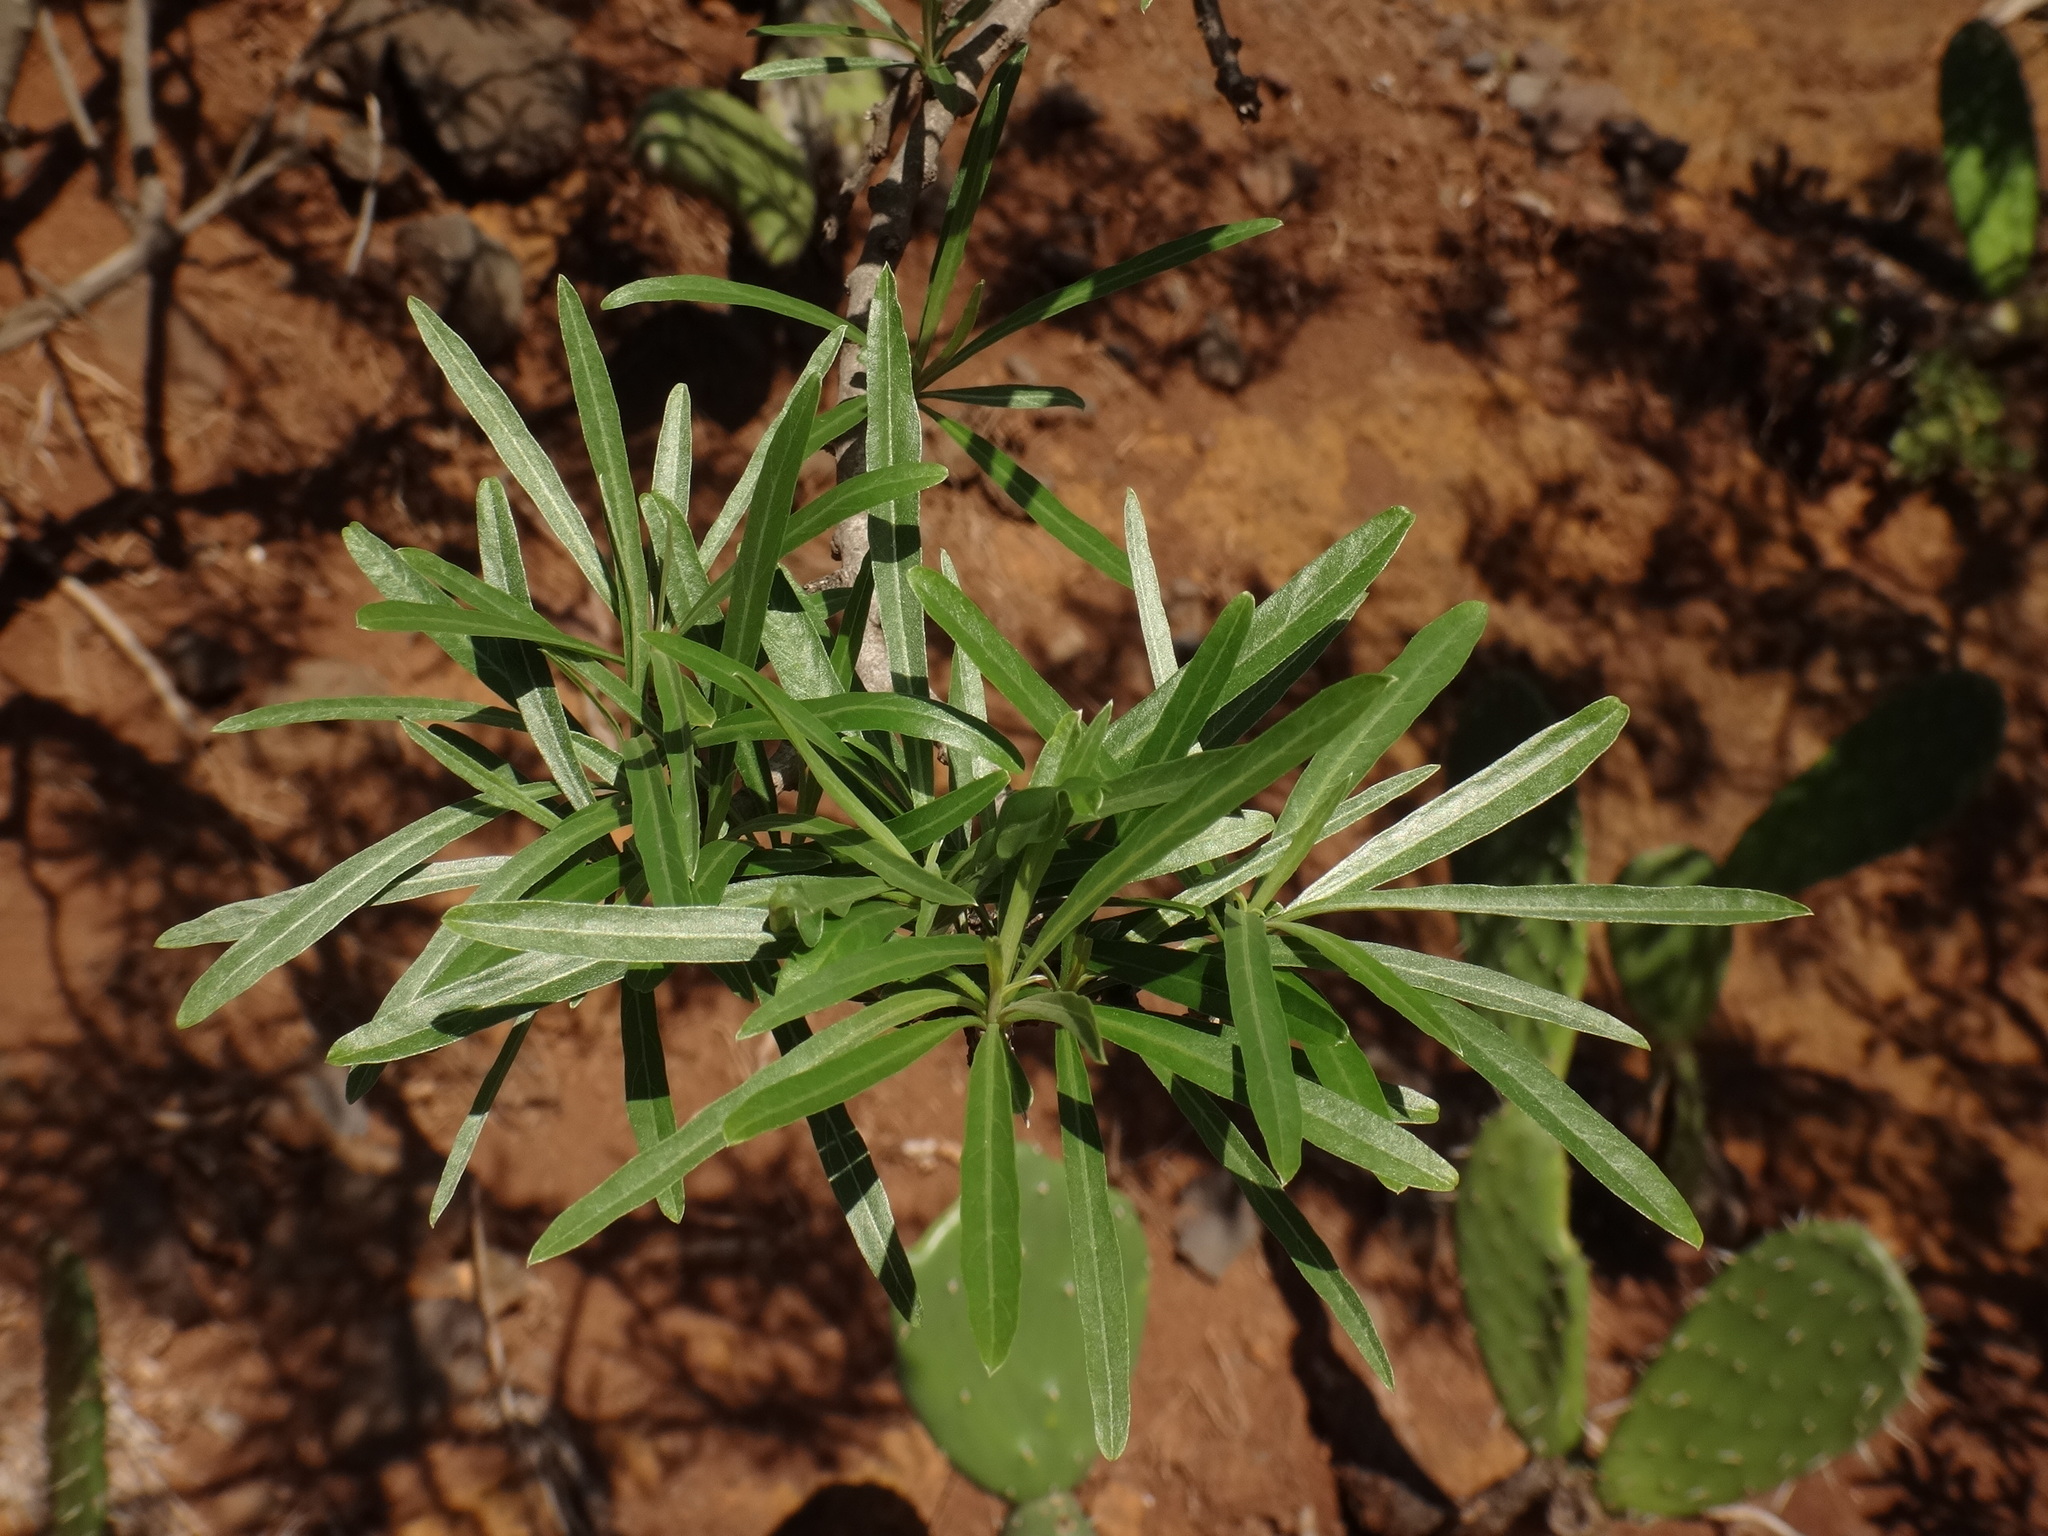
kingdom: Plantae
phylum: Tracheophyta
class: Magnoliopsida
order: Boraginales
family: Heliotropiaceae
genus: Heliotropium
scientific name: Heliotropium messerschmidioides
